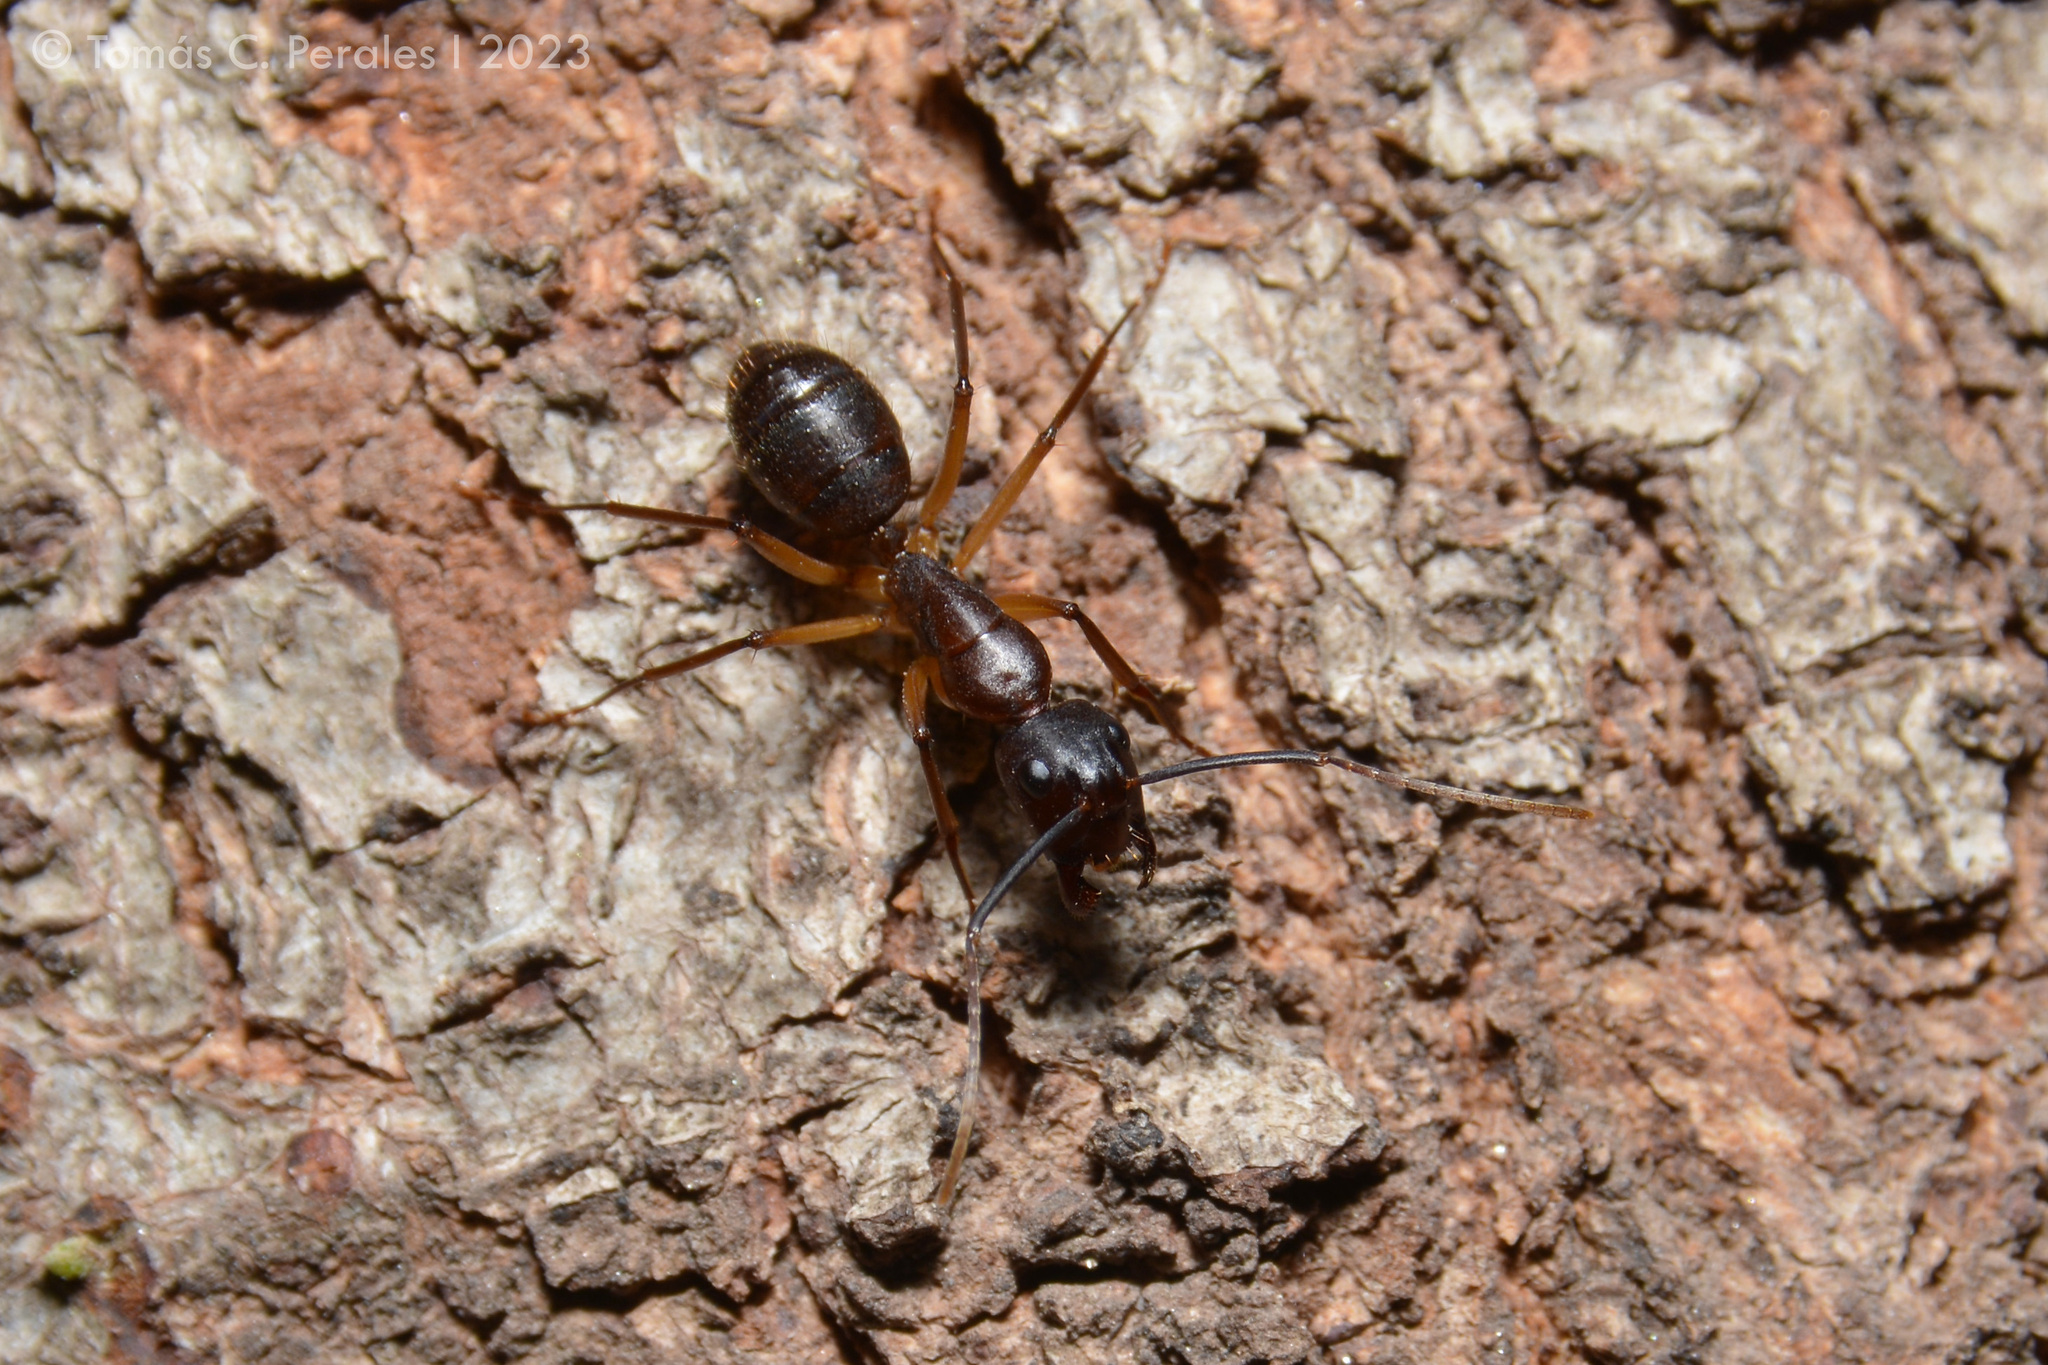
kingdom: Animalia
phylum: Arthropoda
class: Insecta
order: Hymenoptera
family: Formicidae
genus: Camponotus
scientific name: Camponotus borellii
